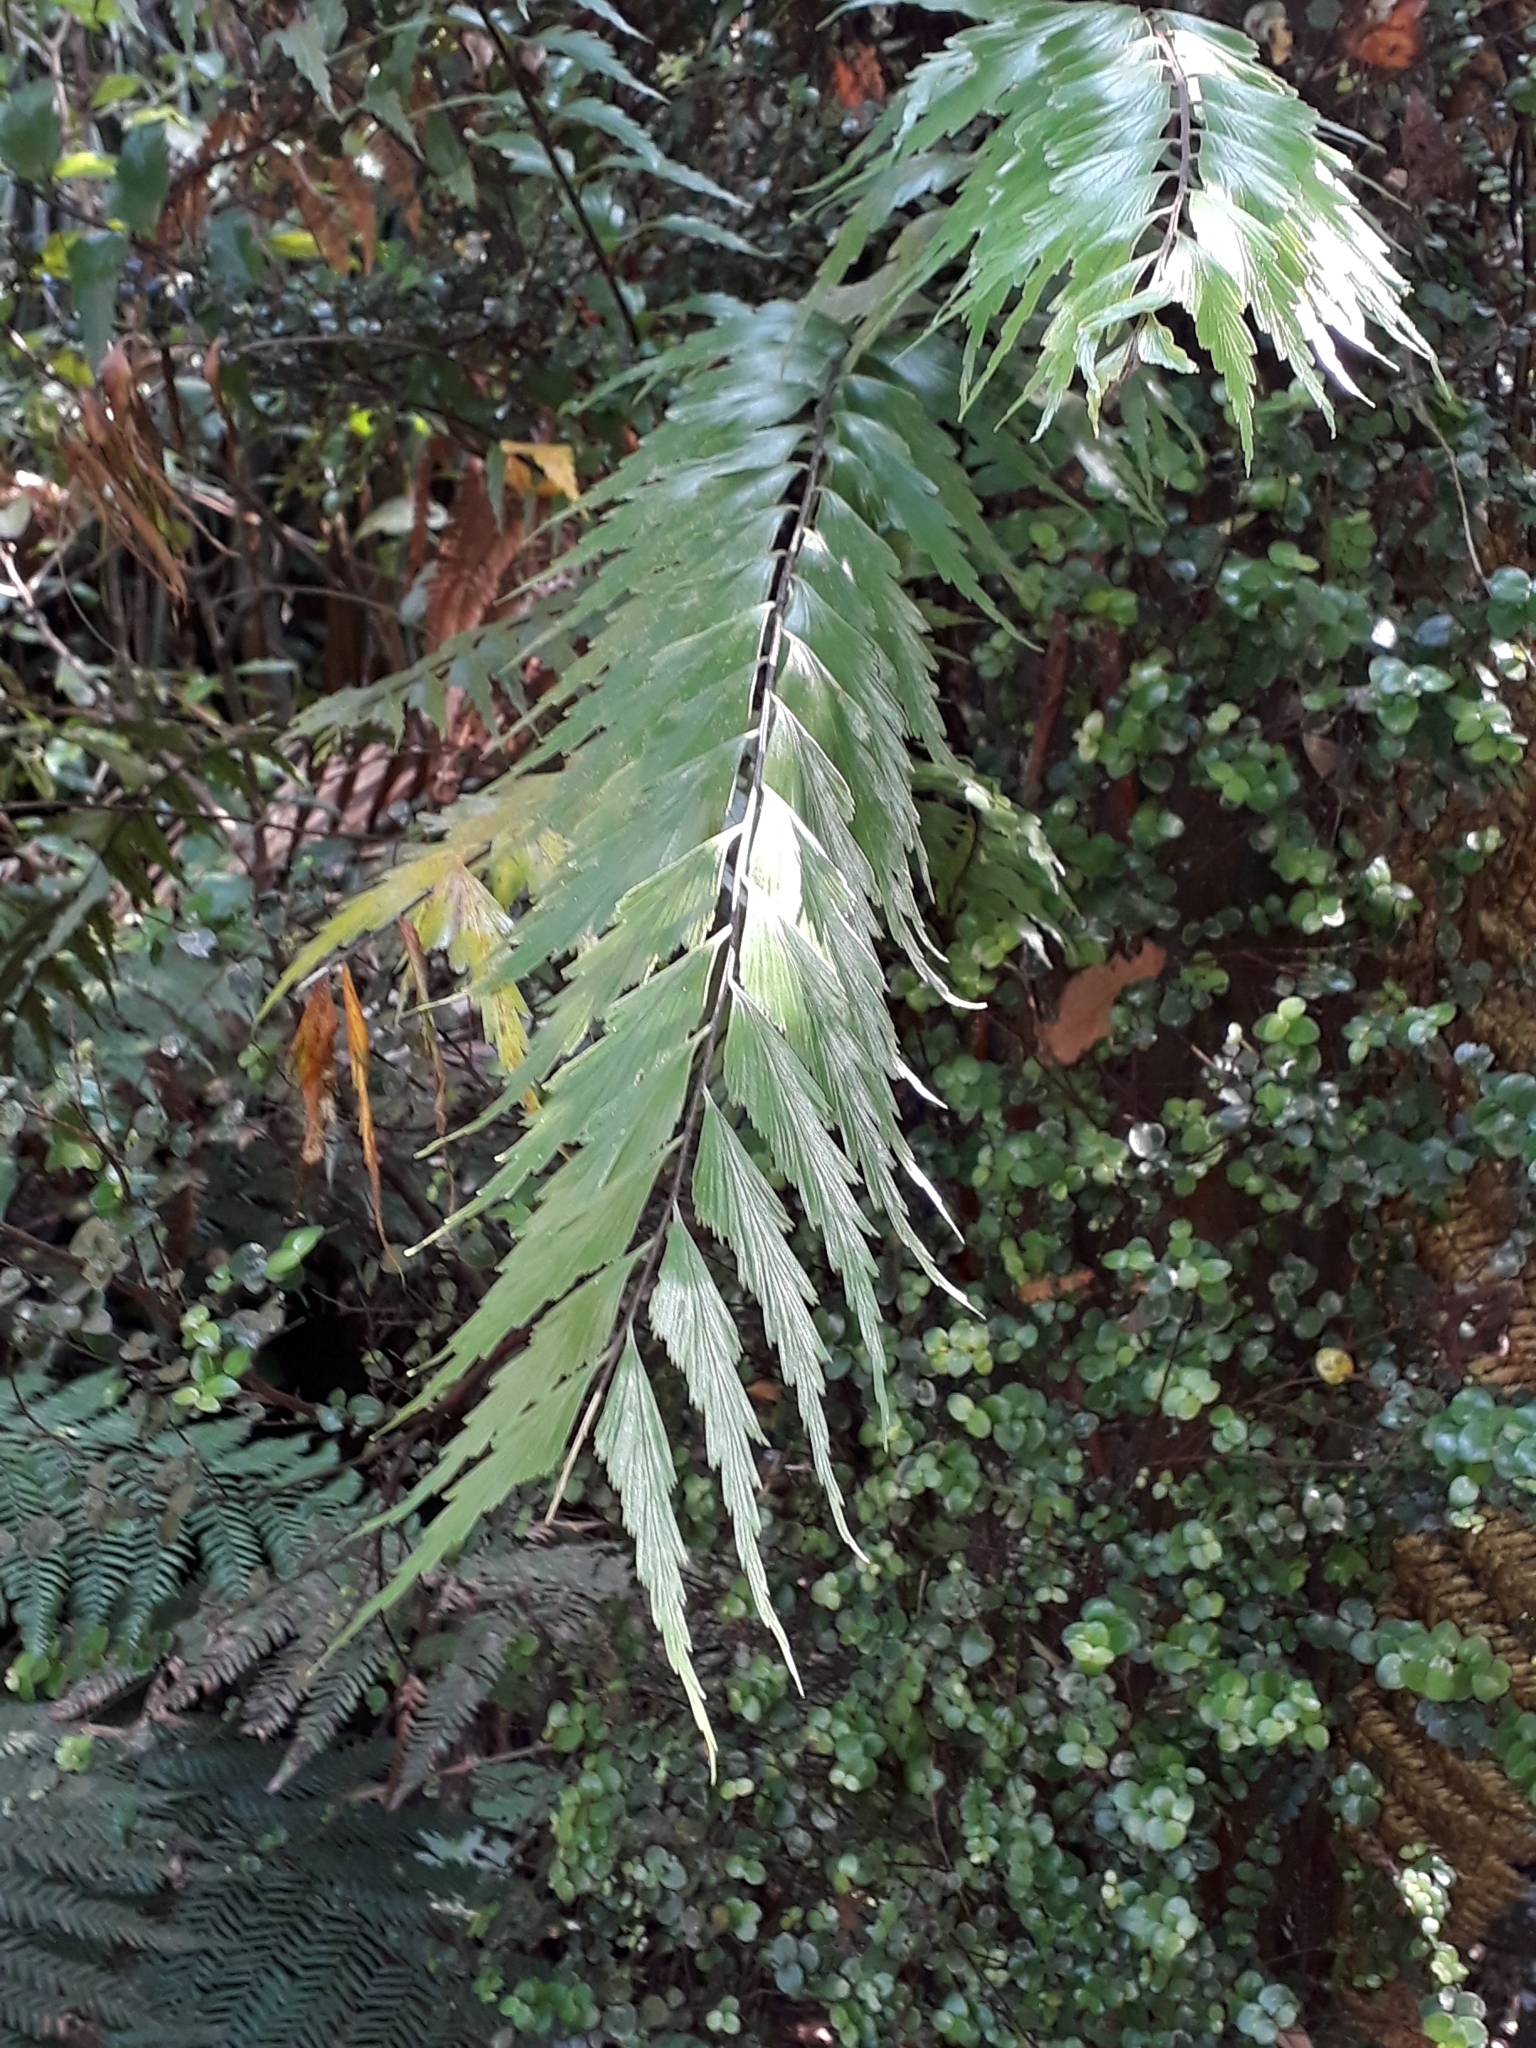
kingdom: Plantae
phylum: Tracheophyta
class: Polypodiopsida
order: Polypodiales
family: Aspleniaceae
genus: Asplenium
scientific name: Asplenium polyodon
